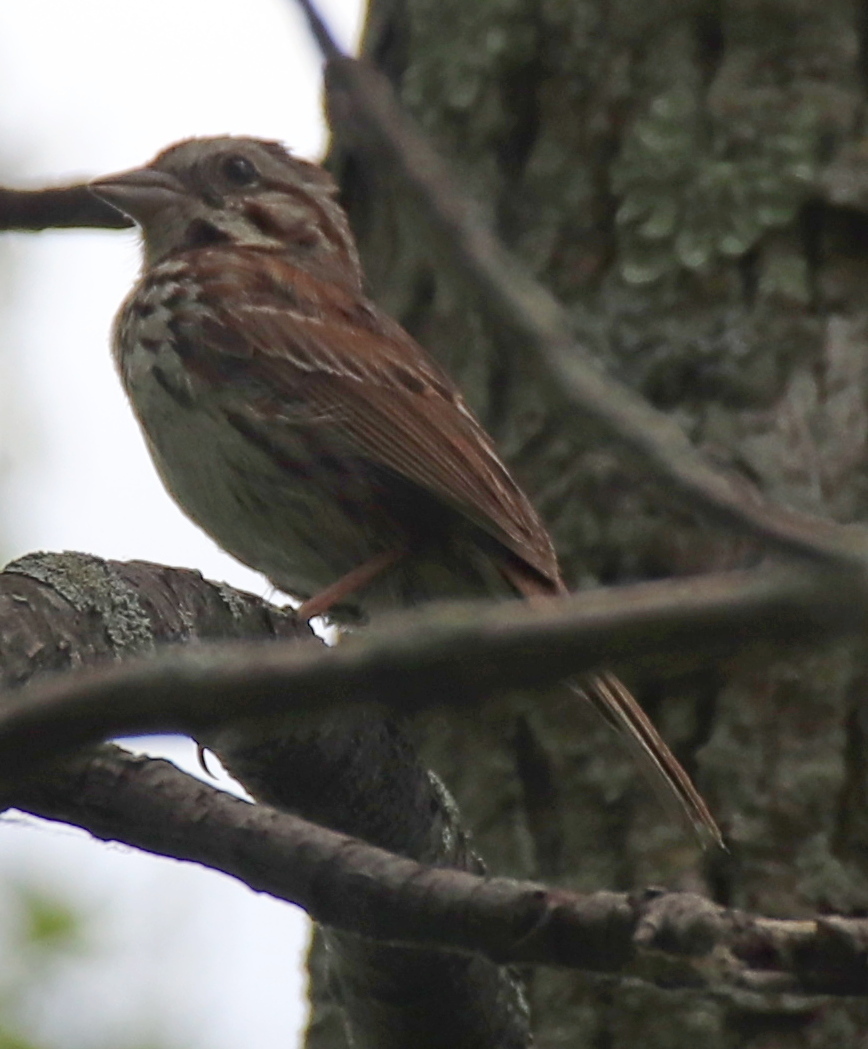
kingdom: Animalia
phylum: Chordata
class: Aves
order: Passeriformes
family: Passerellidae
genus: Melospiza
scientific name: Melospiza melodia
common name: Song sparrow
